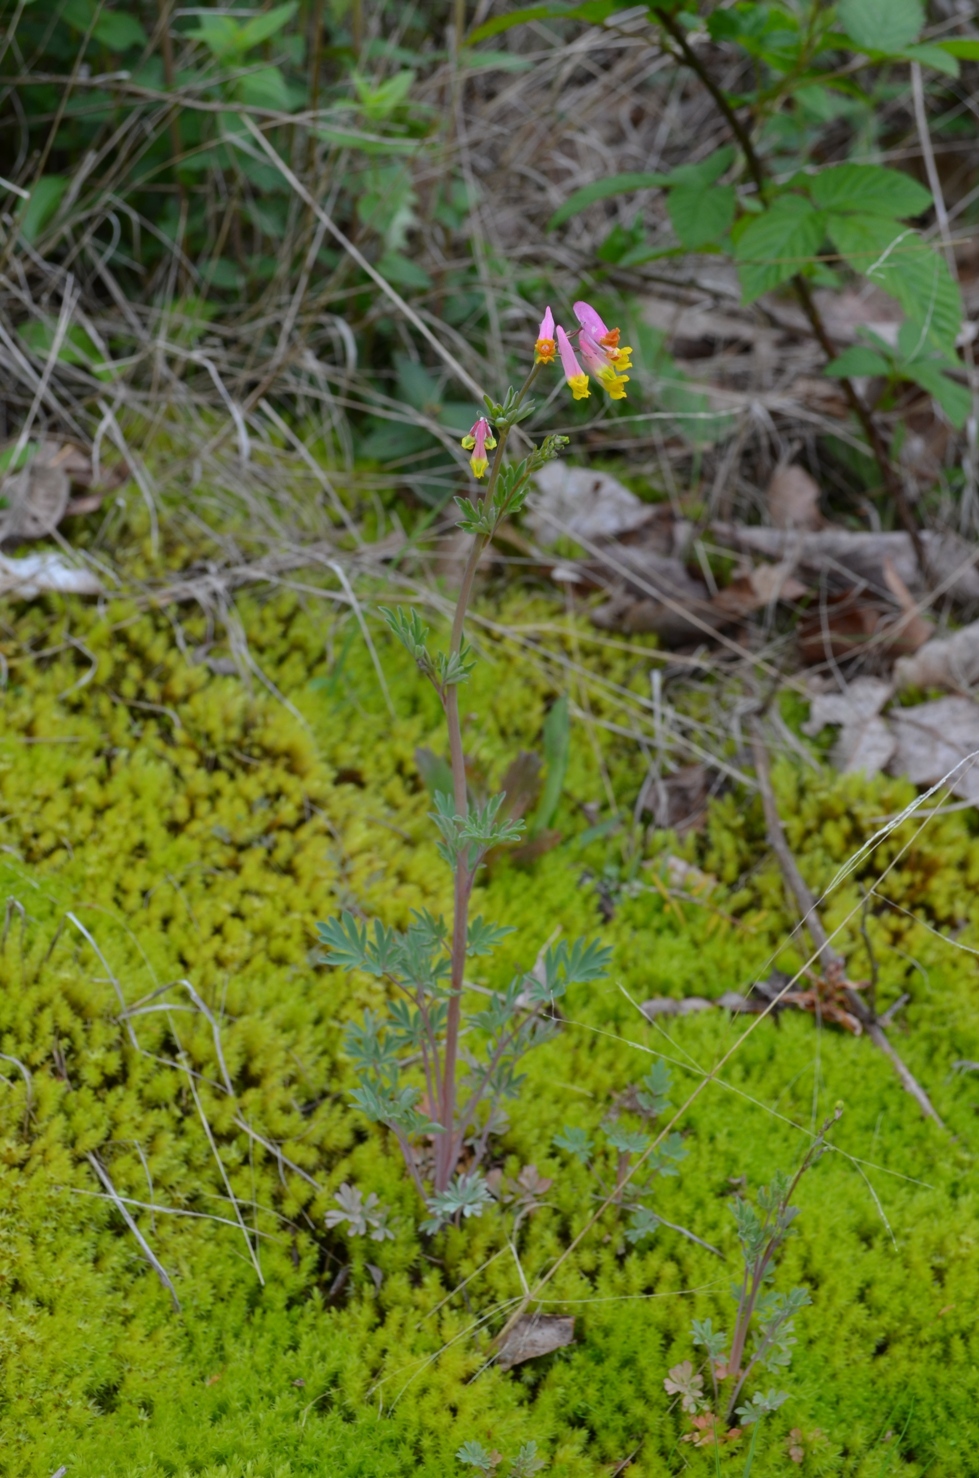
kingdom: Plantae
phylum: Tracheophyta
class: Magnoliopsida
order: Ranunculales
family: Papaveraceae
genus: Capnoides
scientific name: Capnoides sempervirens
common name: Rock harlequin
